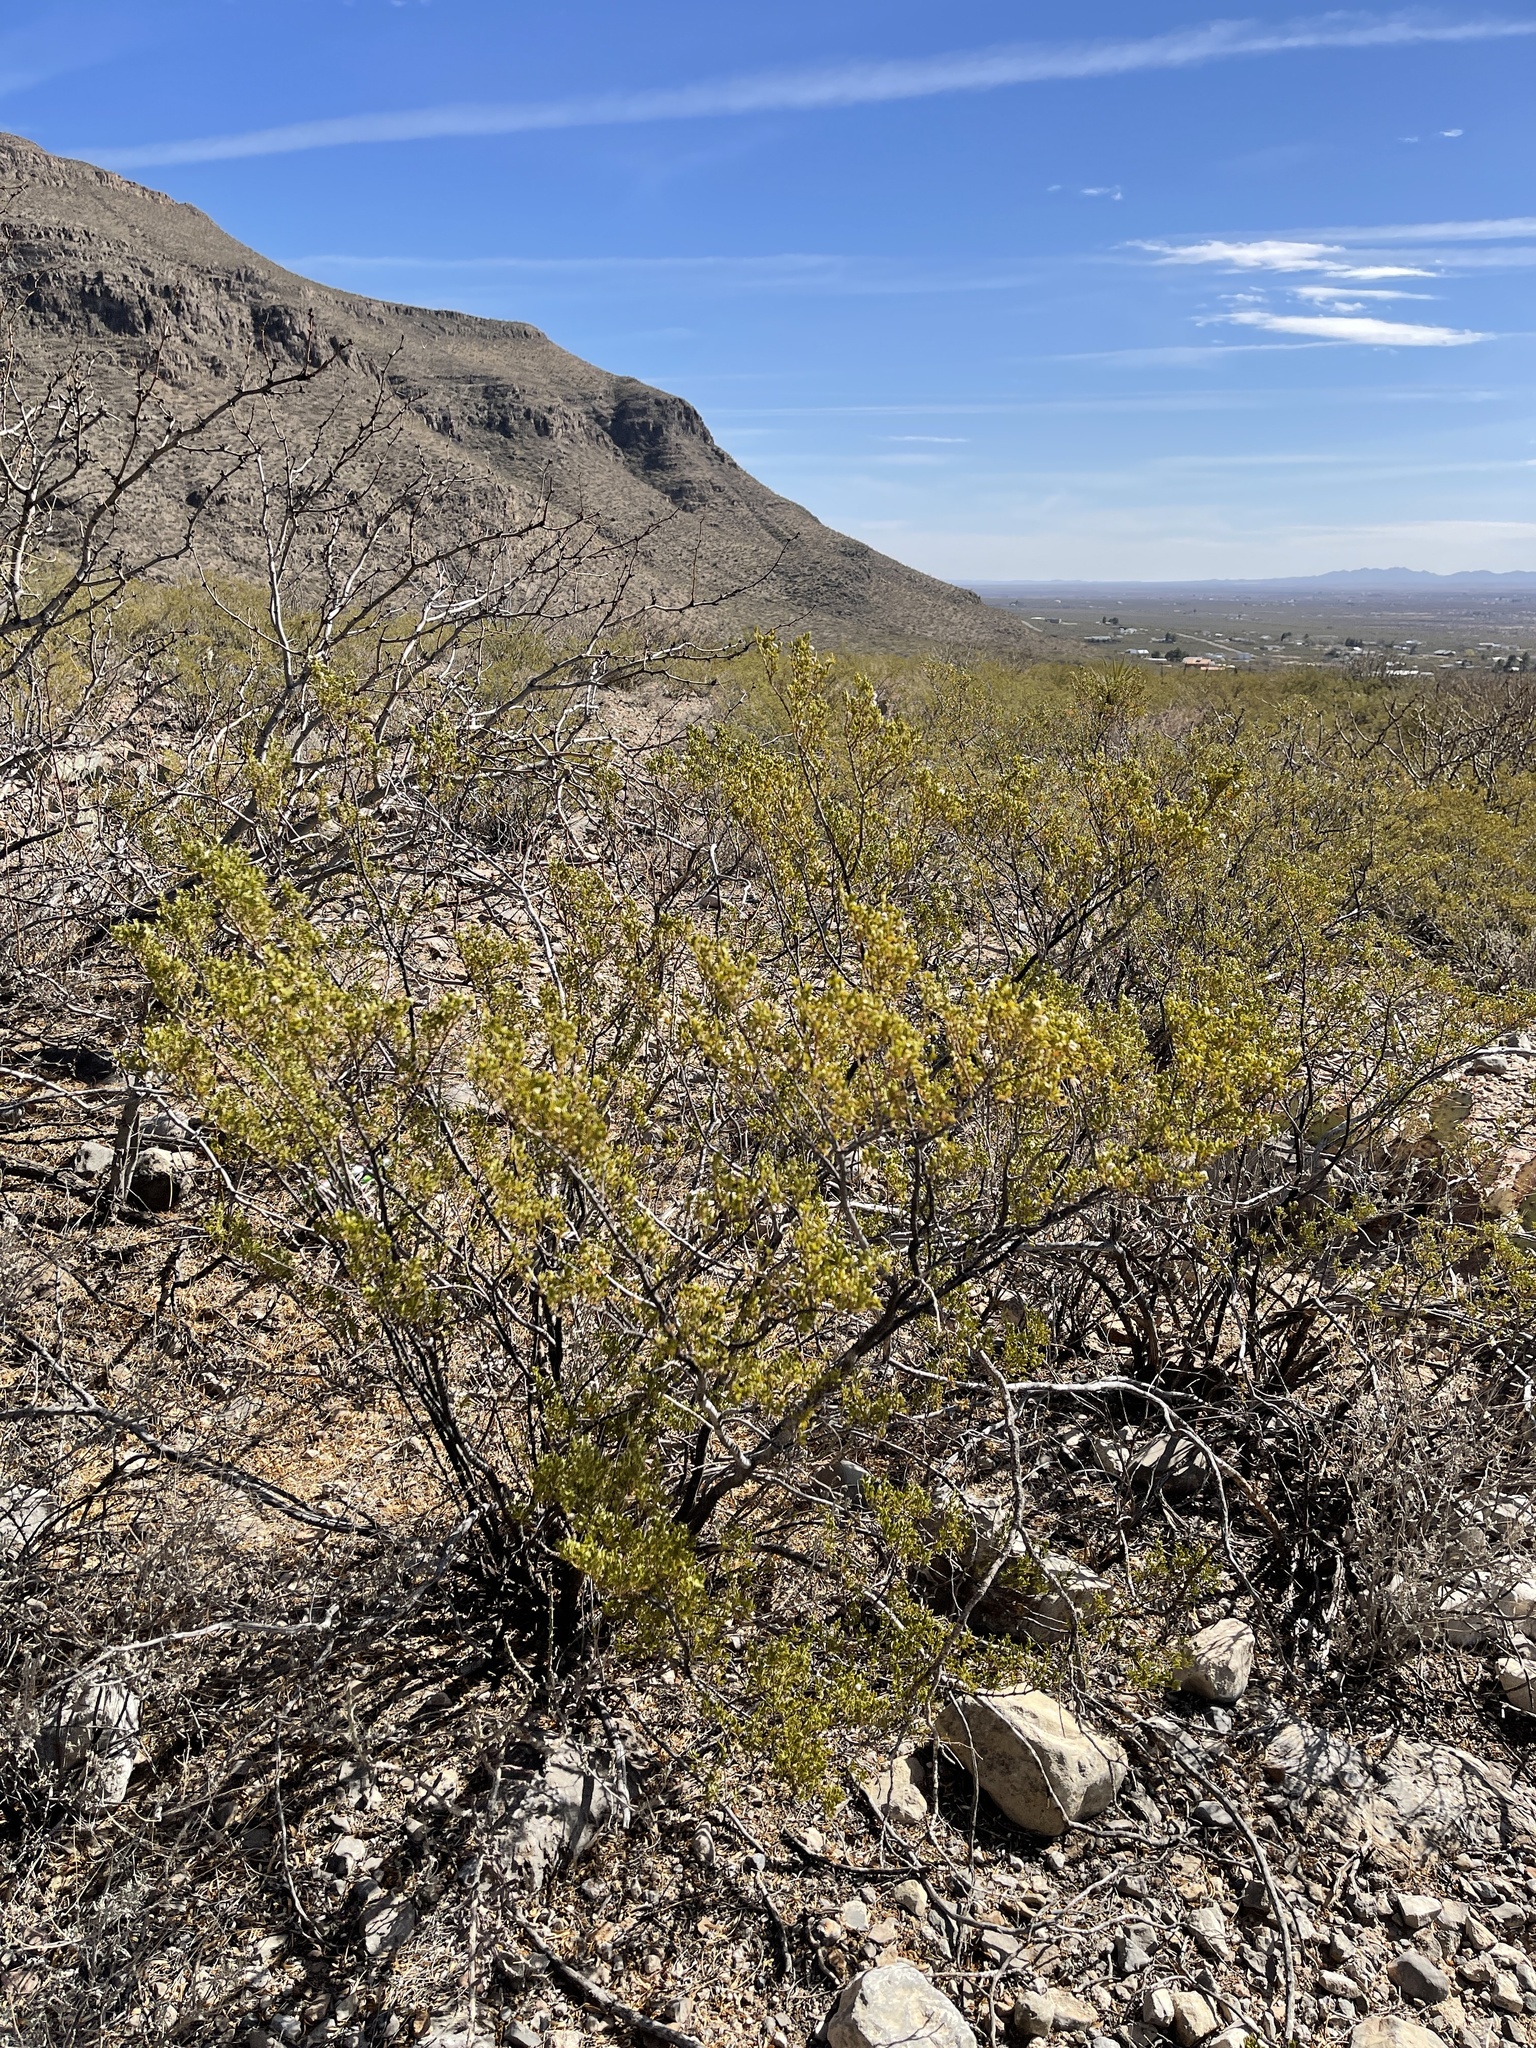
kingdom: Plantae
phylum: Tracheophyta
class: Magnoliopsida
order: Zygophyllales
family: Zygophyllaceae
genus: Larrea
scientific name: Larrea tridentata
